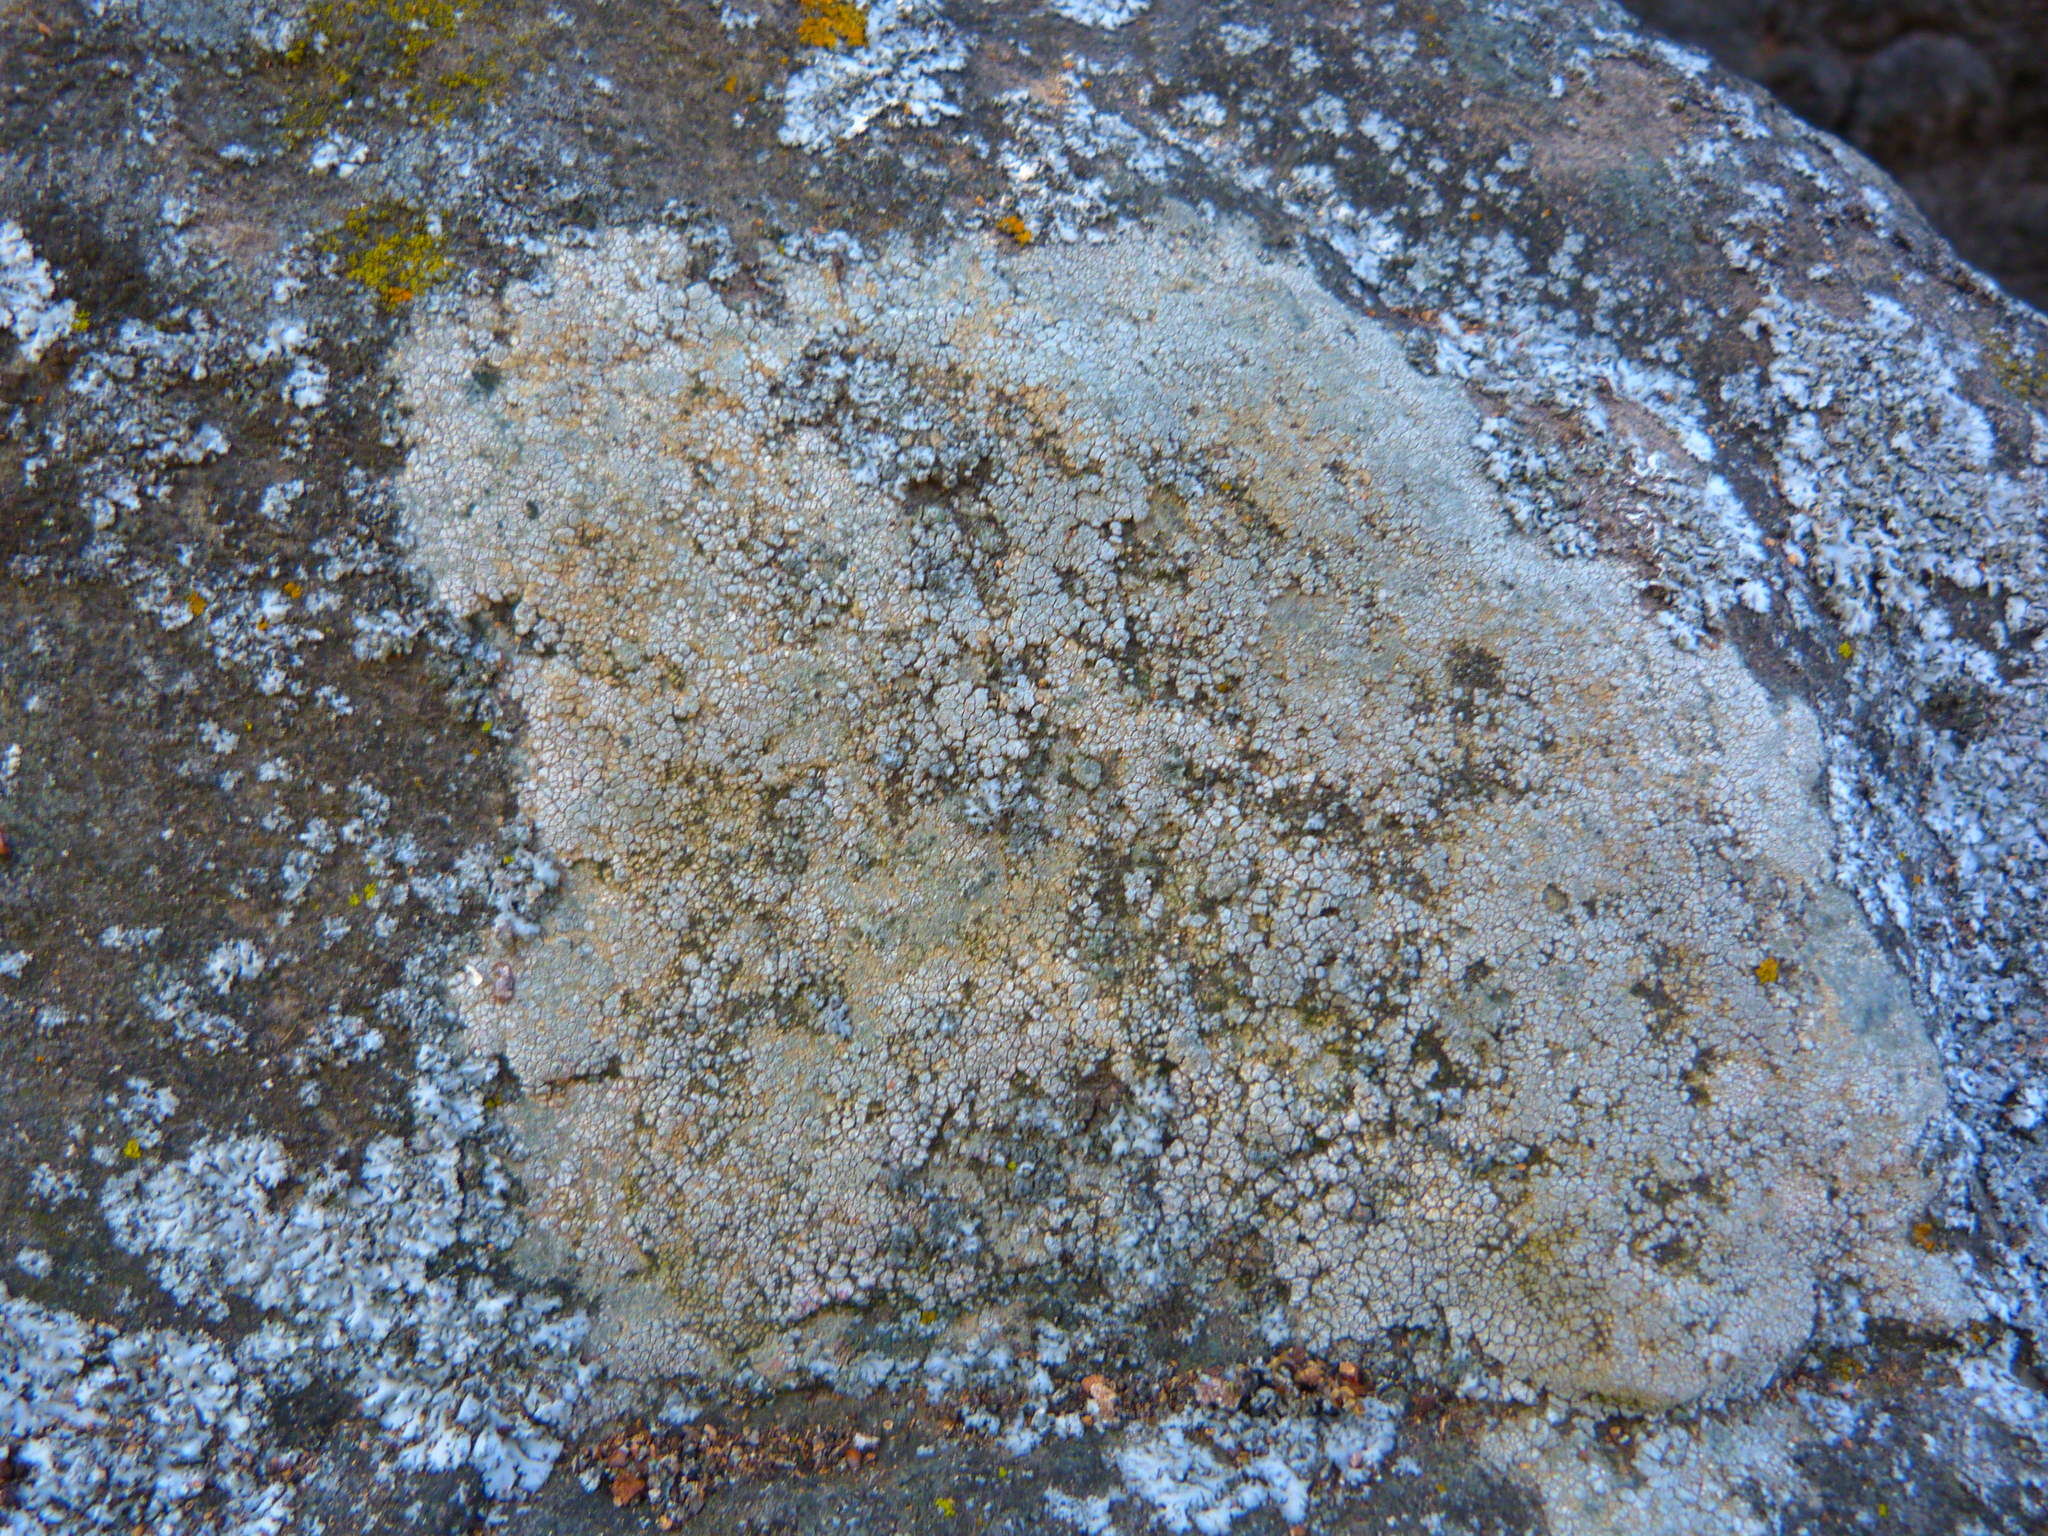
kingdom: Fungi
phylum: Ascomycota
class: Lecanoromycetes
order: Acarosporales
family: Acarosporaceae
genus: Acarospora
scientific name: Acarospora strigata
